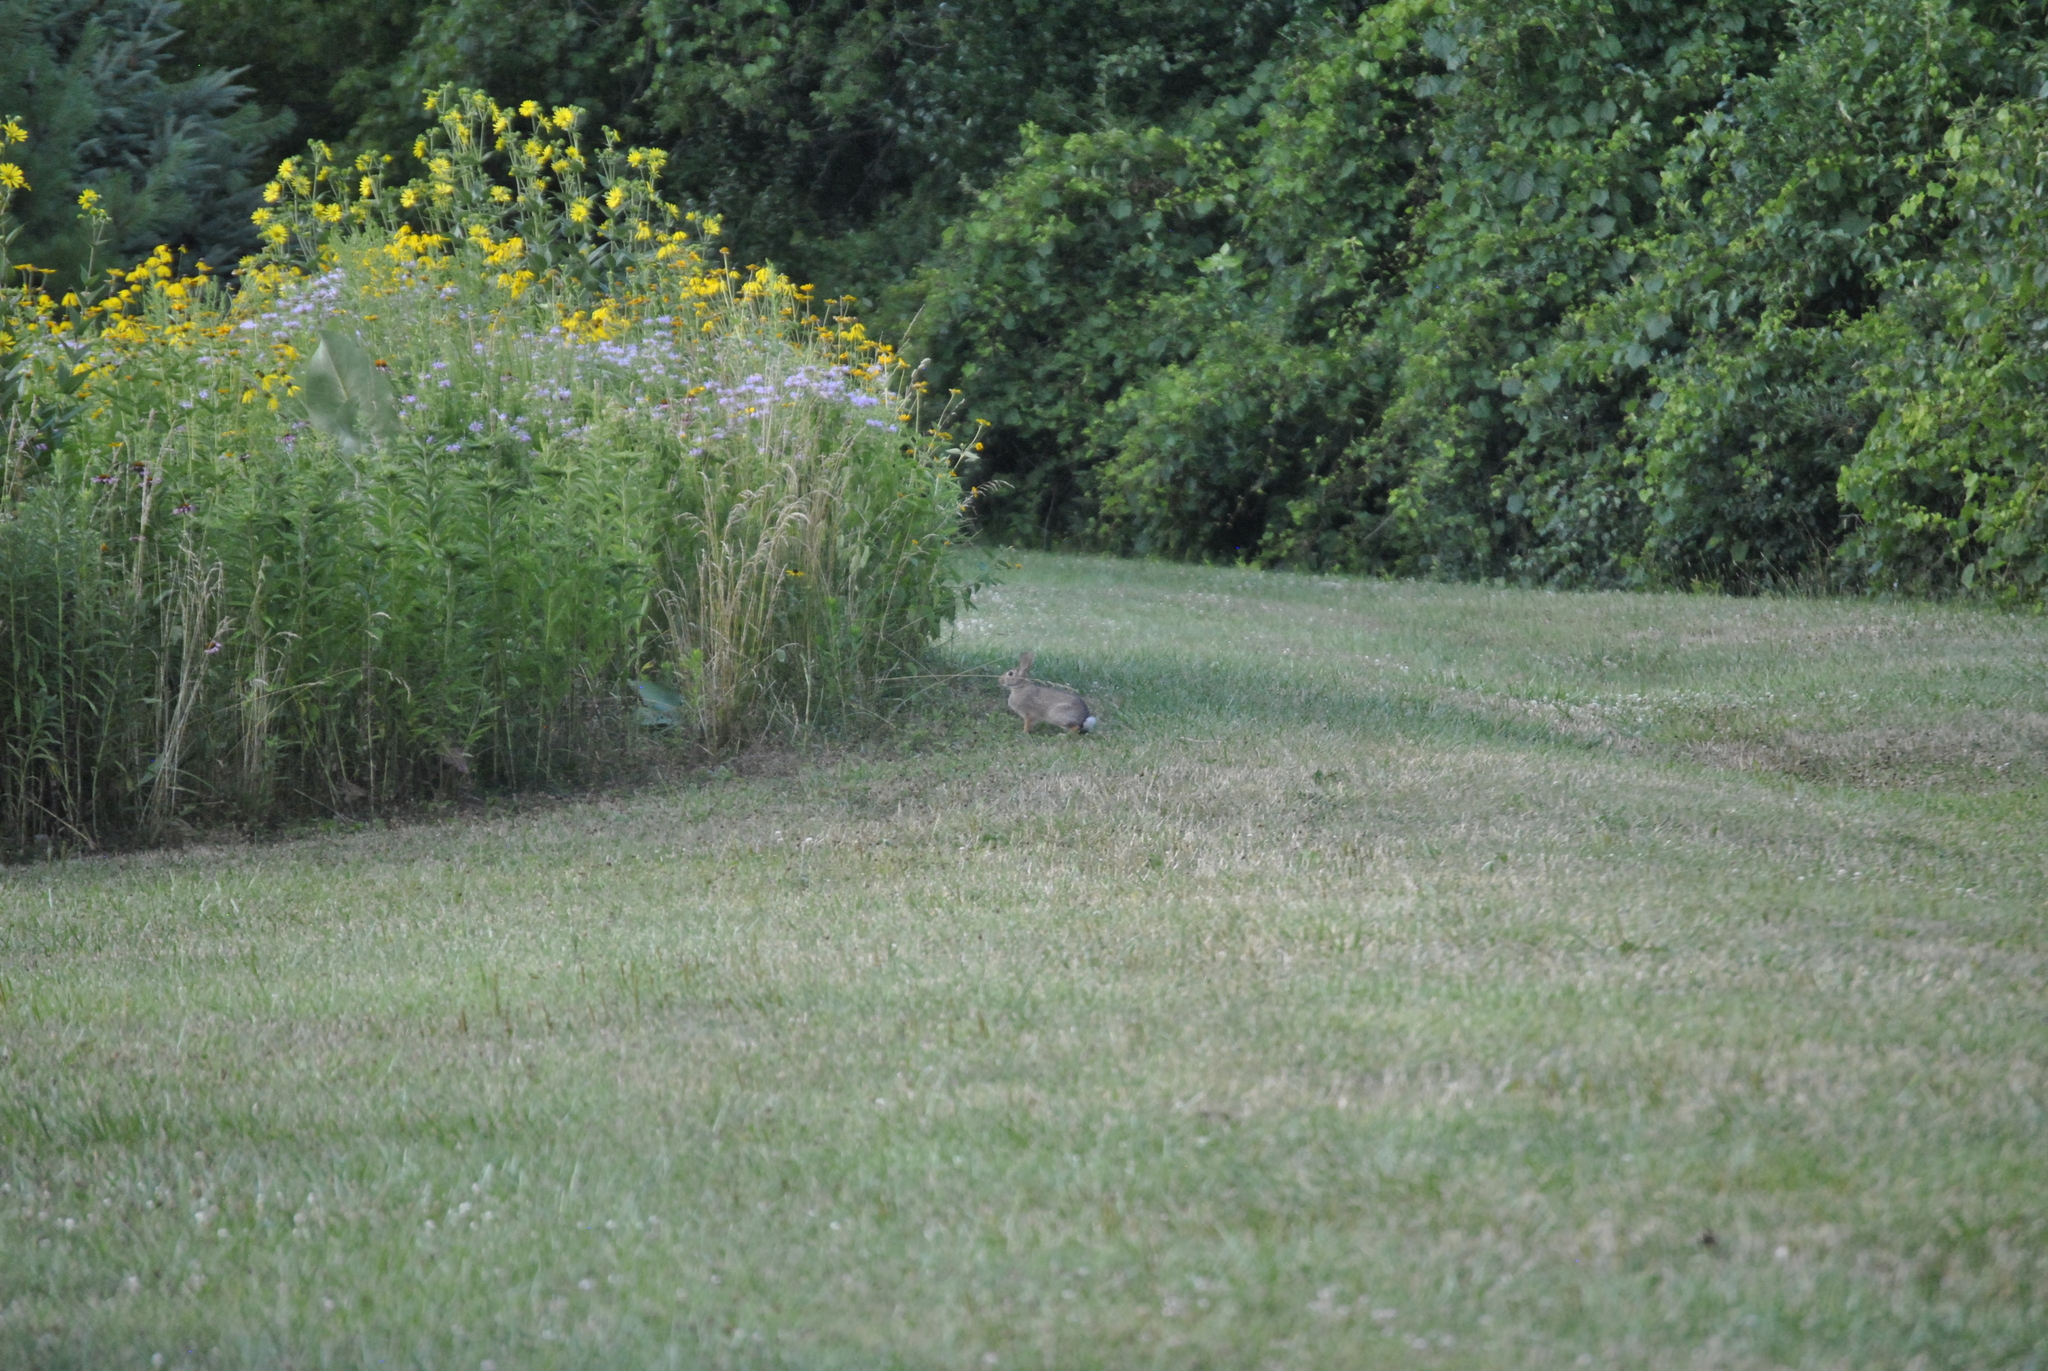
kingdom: Animalia
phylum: Chordata
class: Mammalia
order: Lagomorpha
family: Leporidae
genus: Sylvilagus
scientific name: Sylvilagus floridanus
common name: Eastern cottontail
